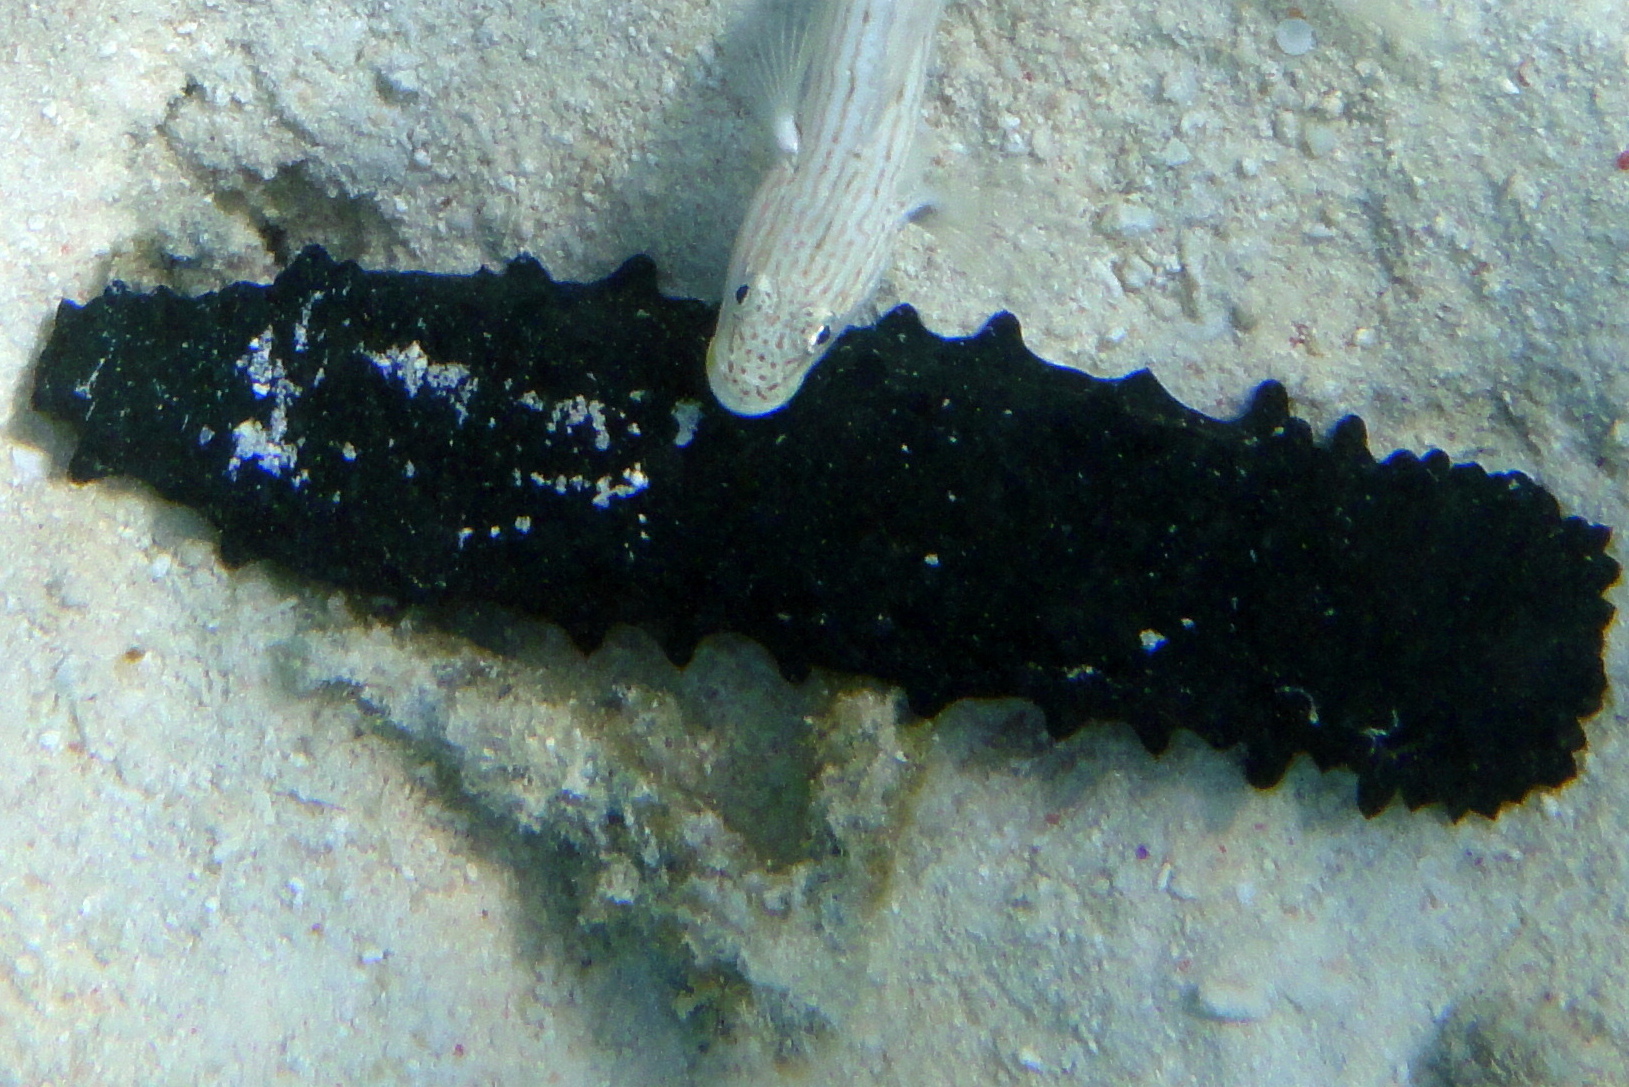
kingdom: Animalia
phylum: Echinodermata
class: Holothuroidea
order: Synallactida
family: Stichopodidae
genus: Stichopus
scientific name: Stichopus chloronotus
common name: Greenfish
